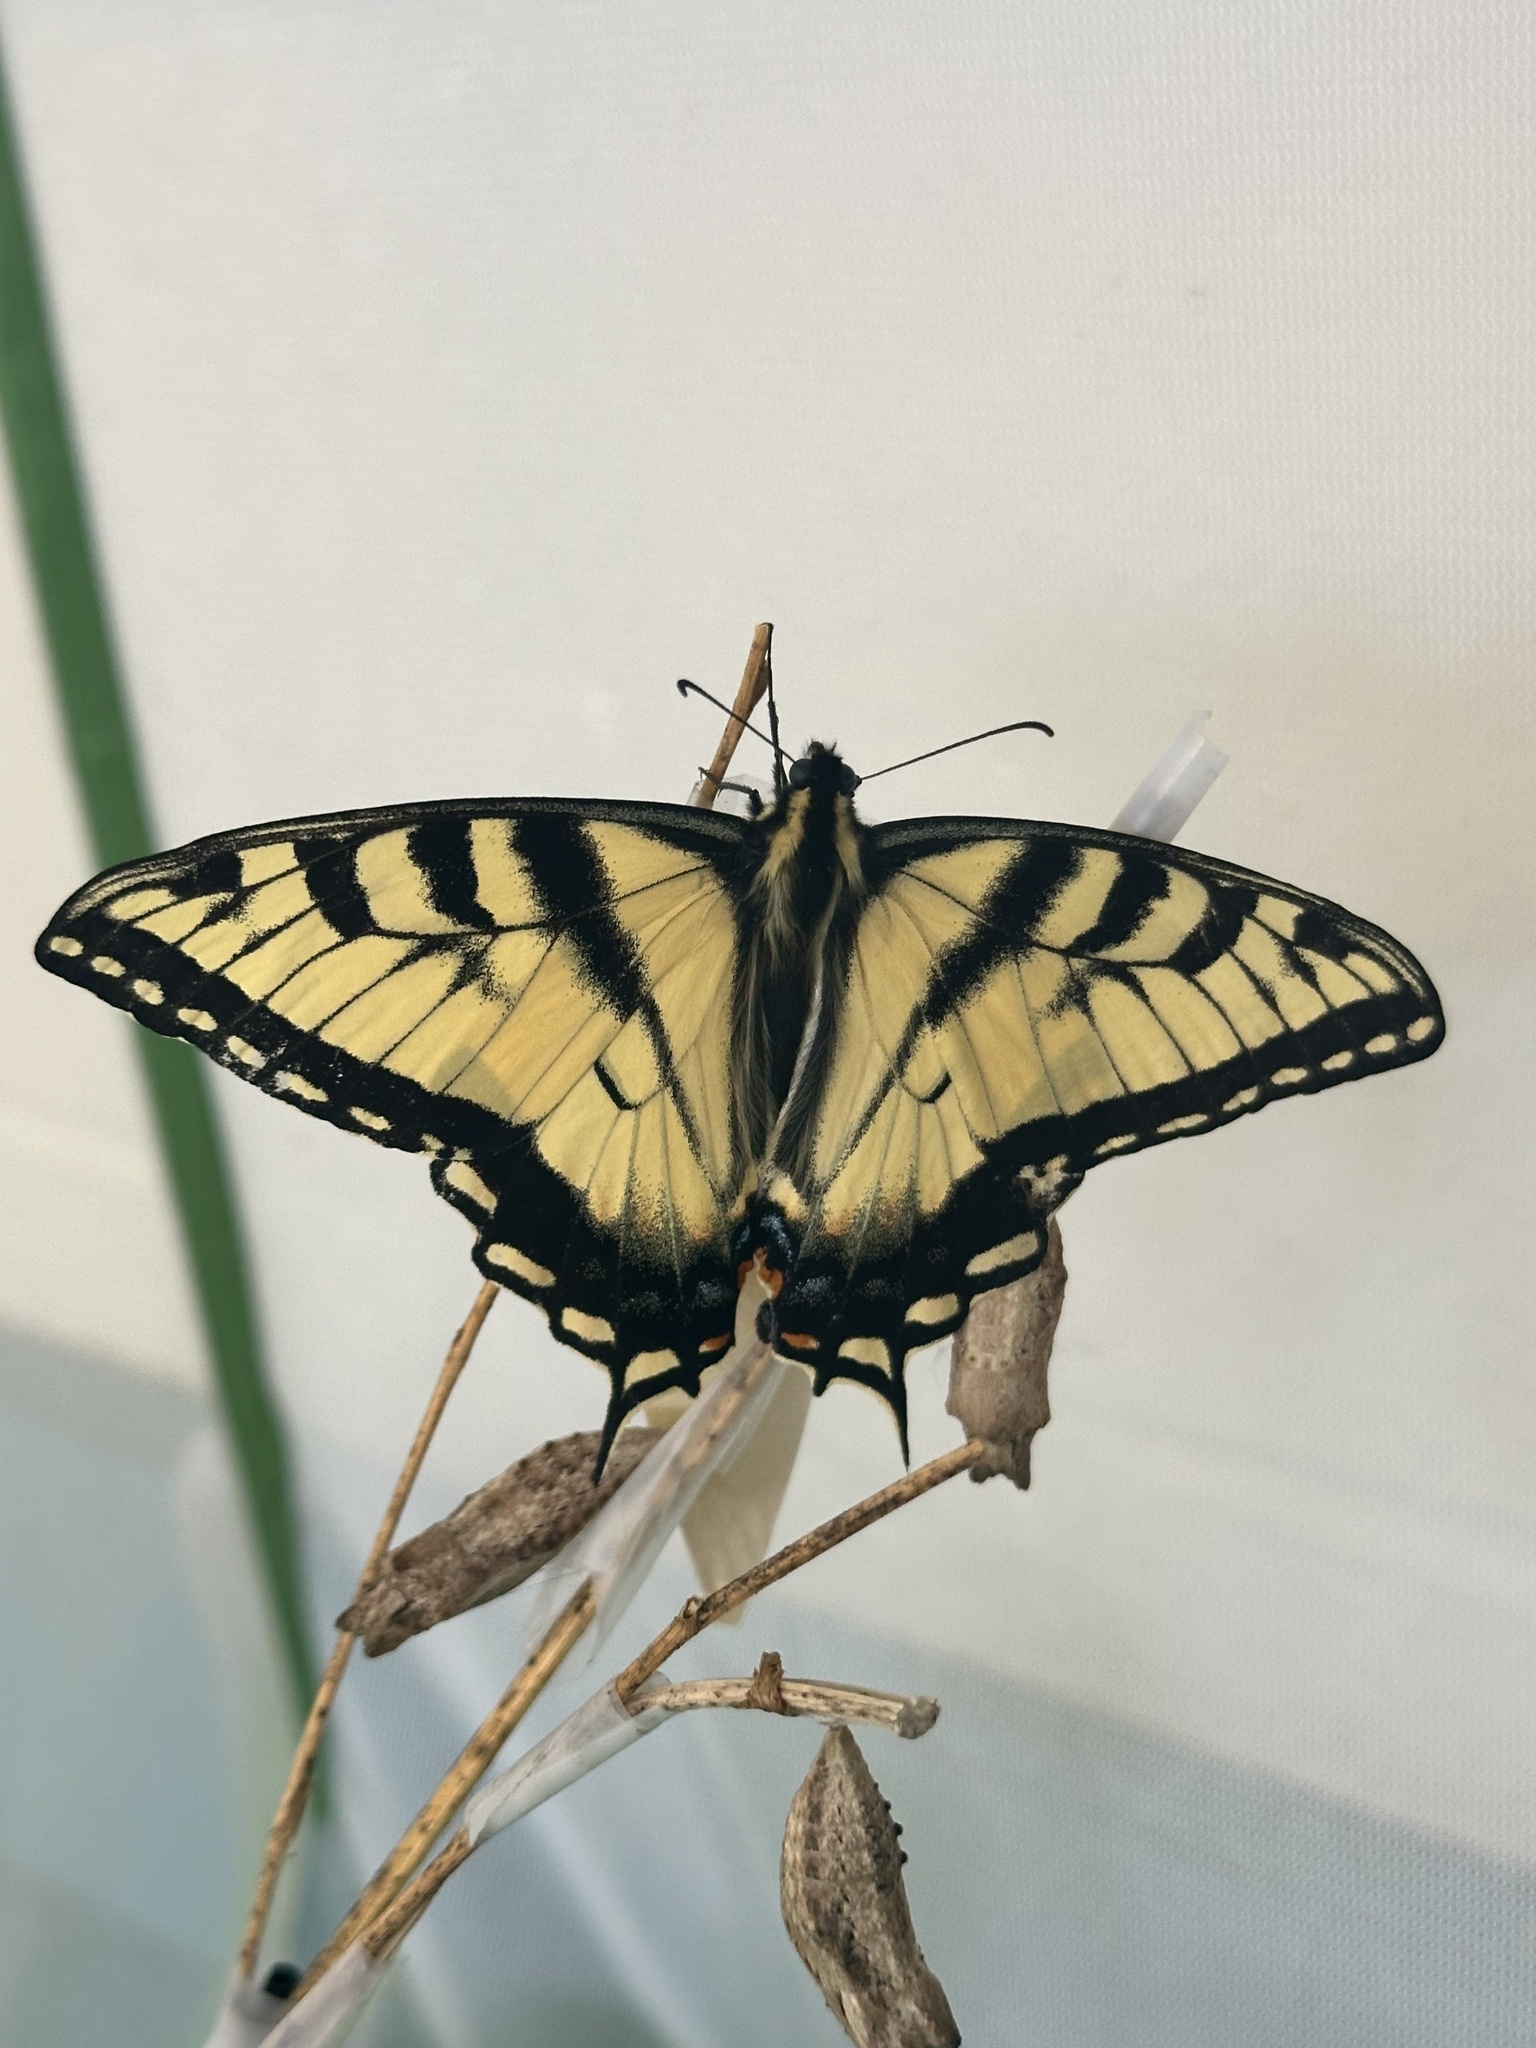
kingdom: Animalia
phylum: Arthropoda
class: Insecta
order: Lepidoptera
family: Papilionidae
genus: Papilio
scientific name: Papilio glaucus
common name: Tiger swallowtail
